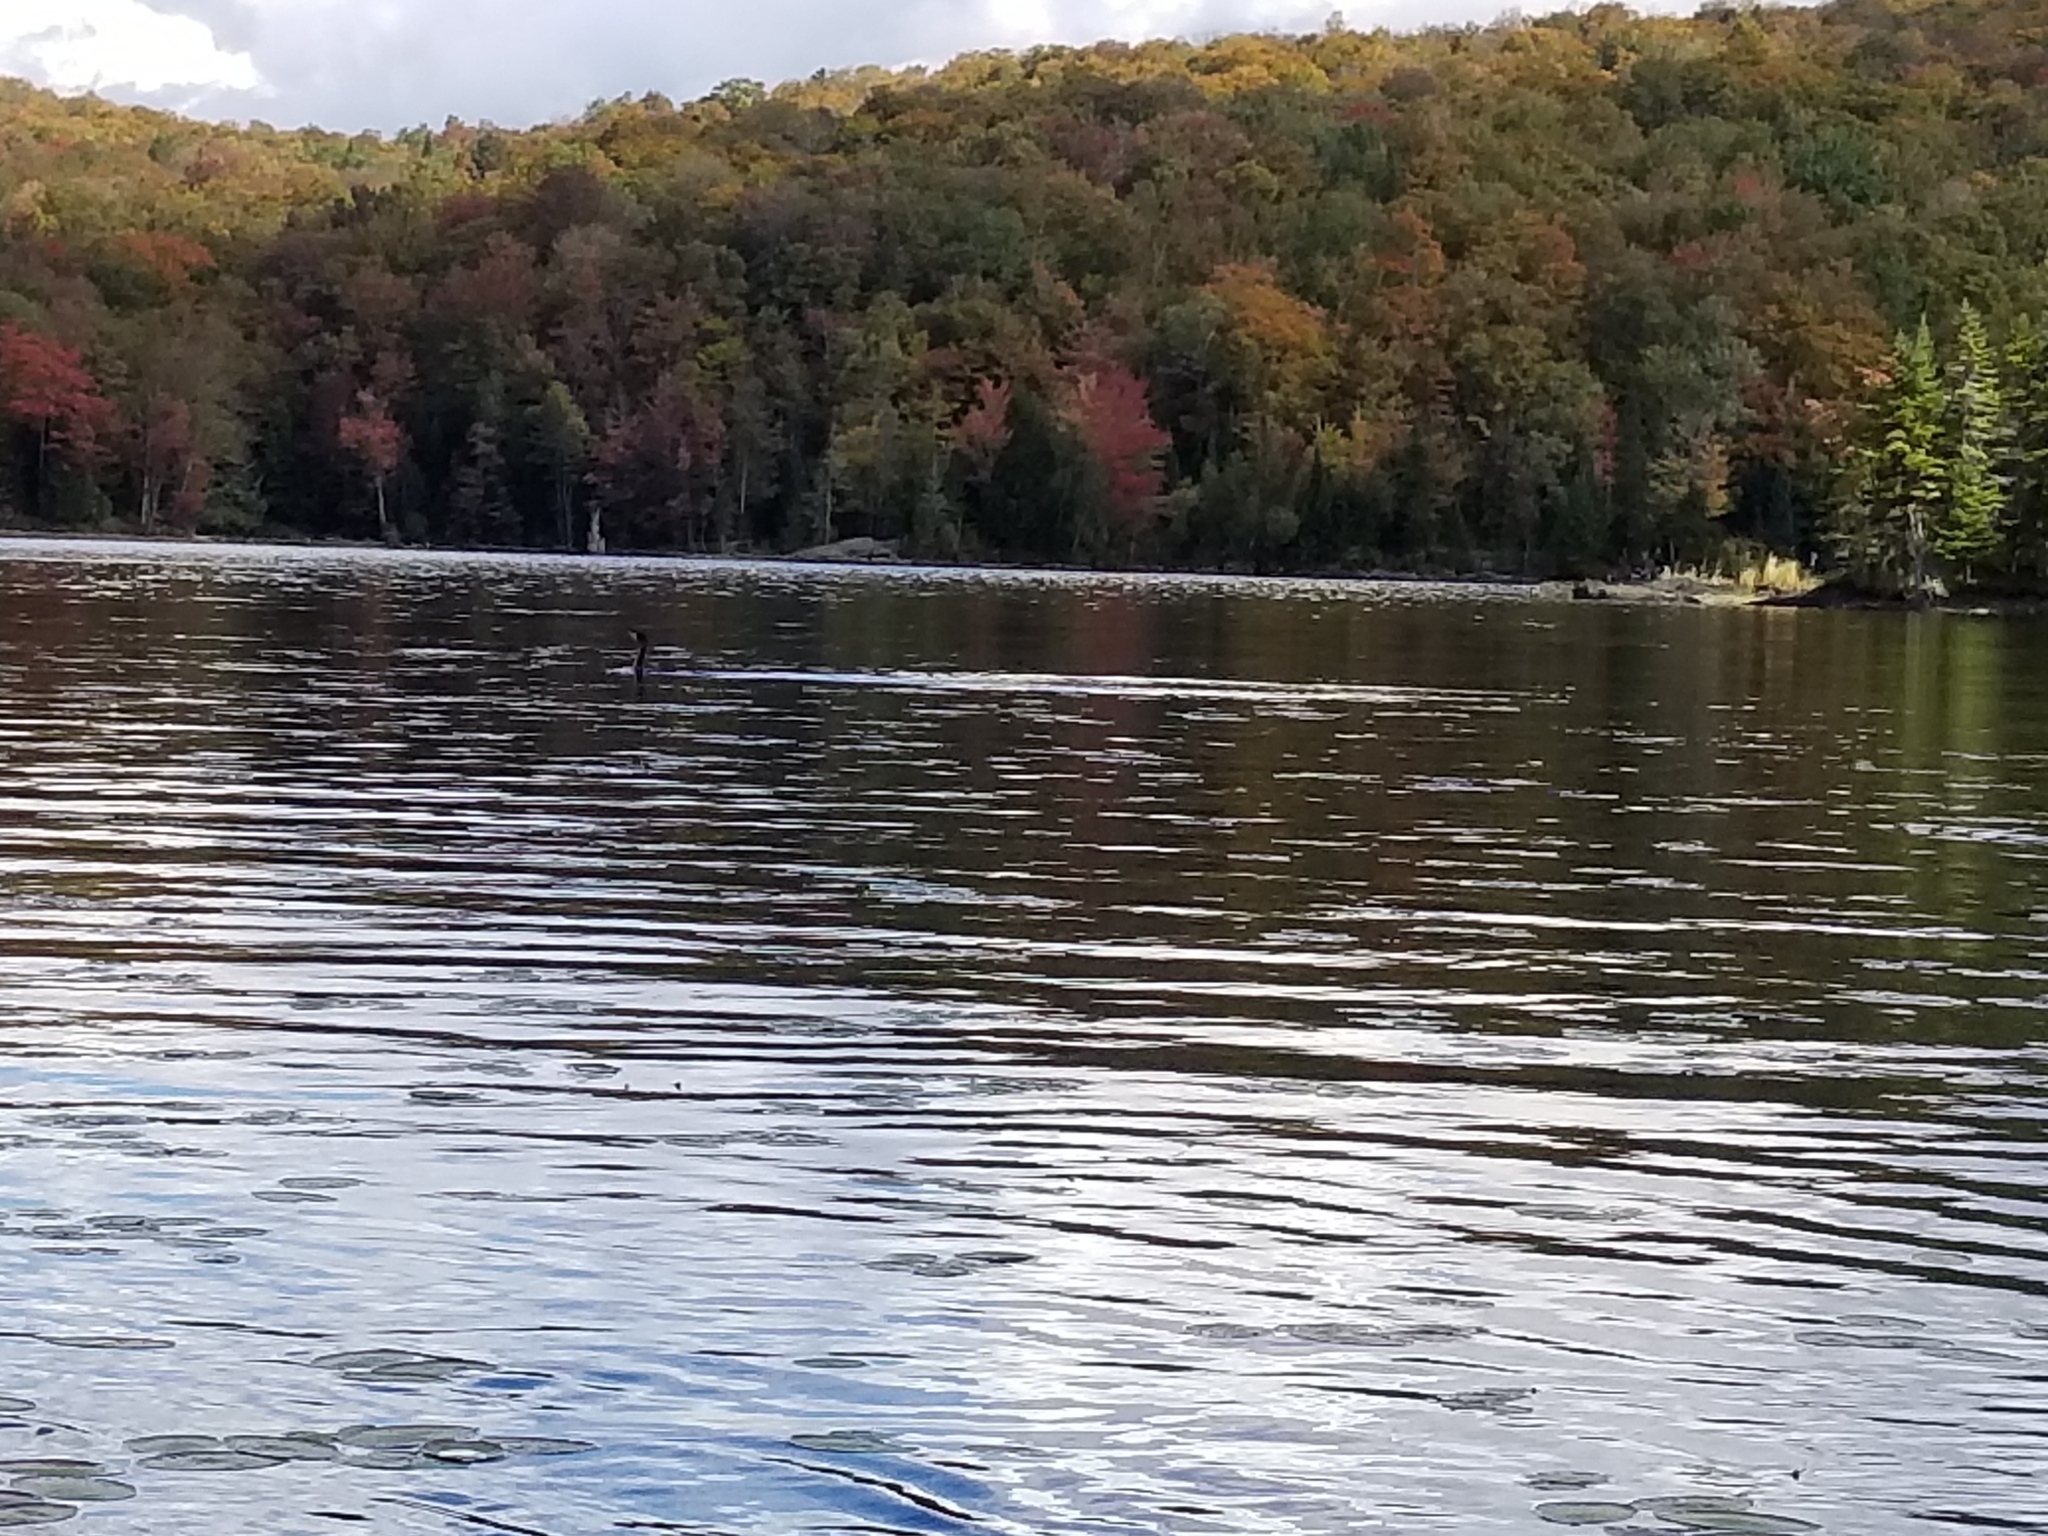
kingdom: Animalia
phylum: Chordata
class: Aves
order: Suliformes
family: Phalacrocoracidae
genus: Phalacrocorax
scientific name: Phalacrocorax auritus
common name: Double-crested cormorant
